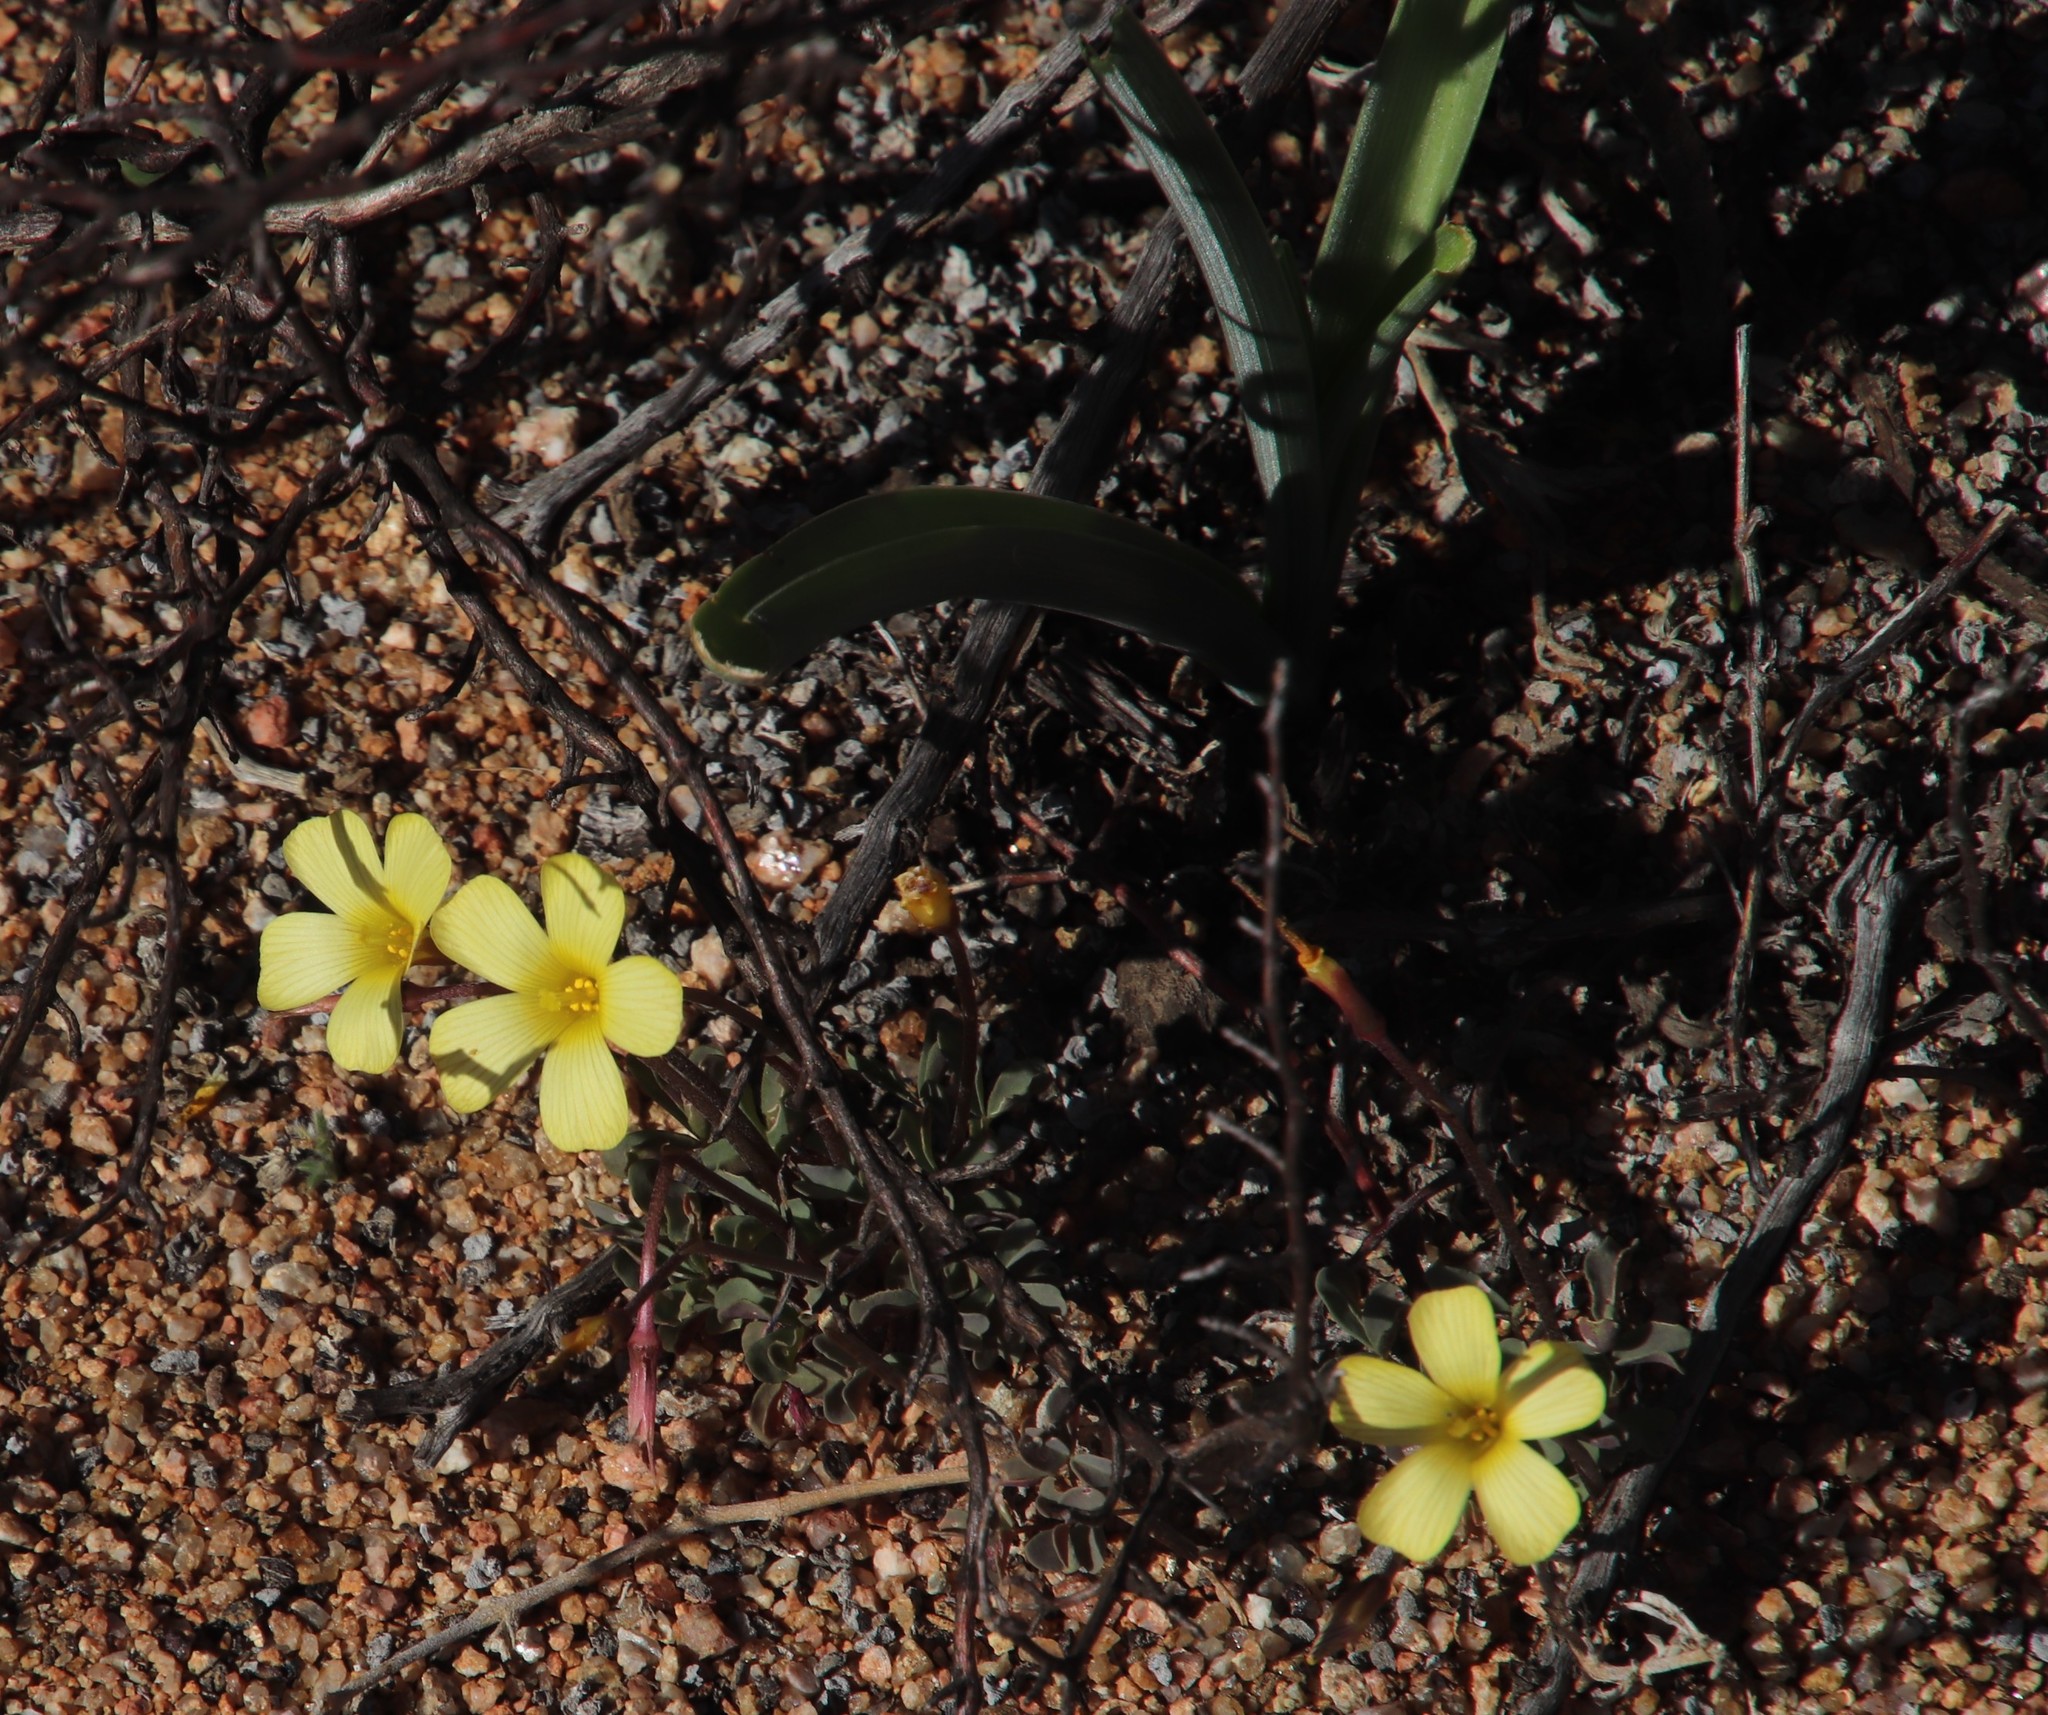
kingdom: Plantae
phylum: Tracheophyta
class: Magnoliopsida
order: Oxalidales
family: Oxalidaceae
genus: Oxalis
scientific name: Oxalis obtusa
